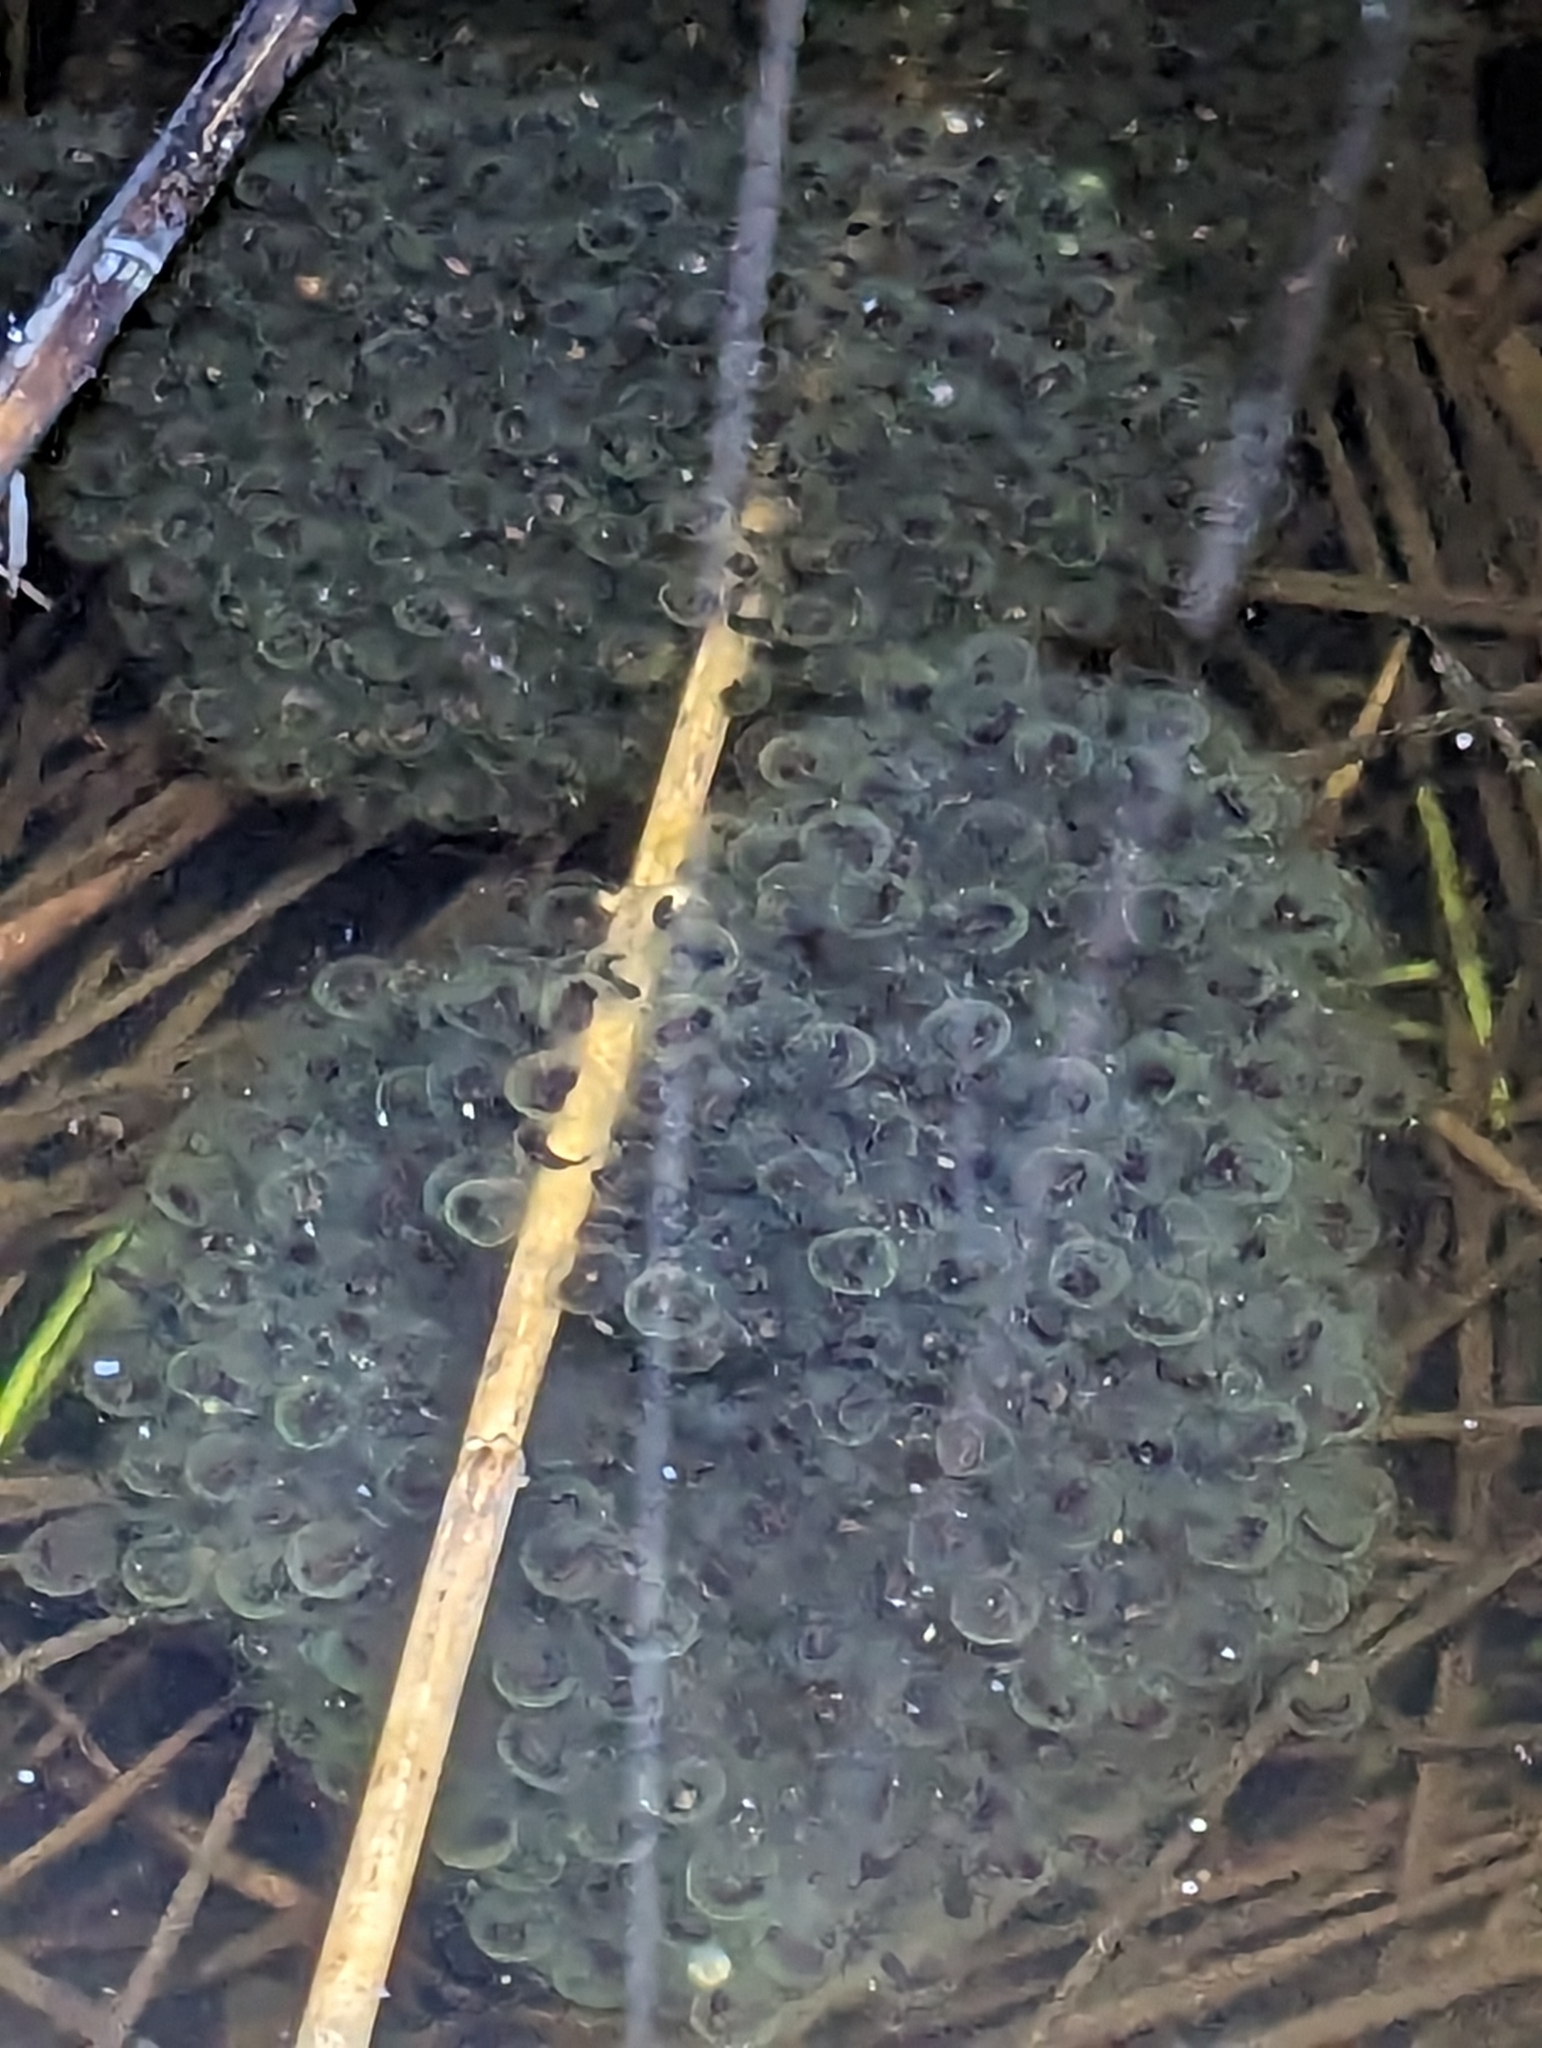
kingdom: Animalia
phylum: Chordata
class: Amphibia
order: Anura
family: Ranidae
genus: Lithobates
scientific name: Lithobates sylvaticus
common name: Wood frog
